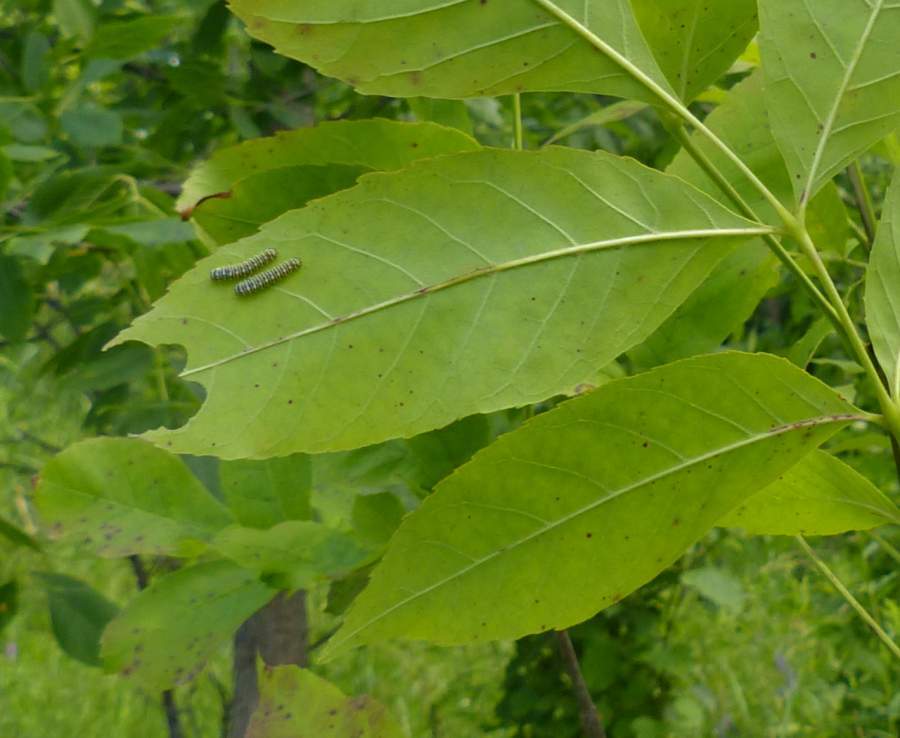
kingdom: Animalia
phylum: Arthropoda
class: Insecta
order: Lepidoptera
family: Saturniidae
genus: Callosamia
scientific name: Callosamia promethea
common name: Promethea silkmoth
